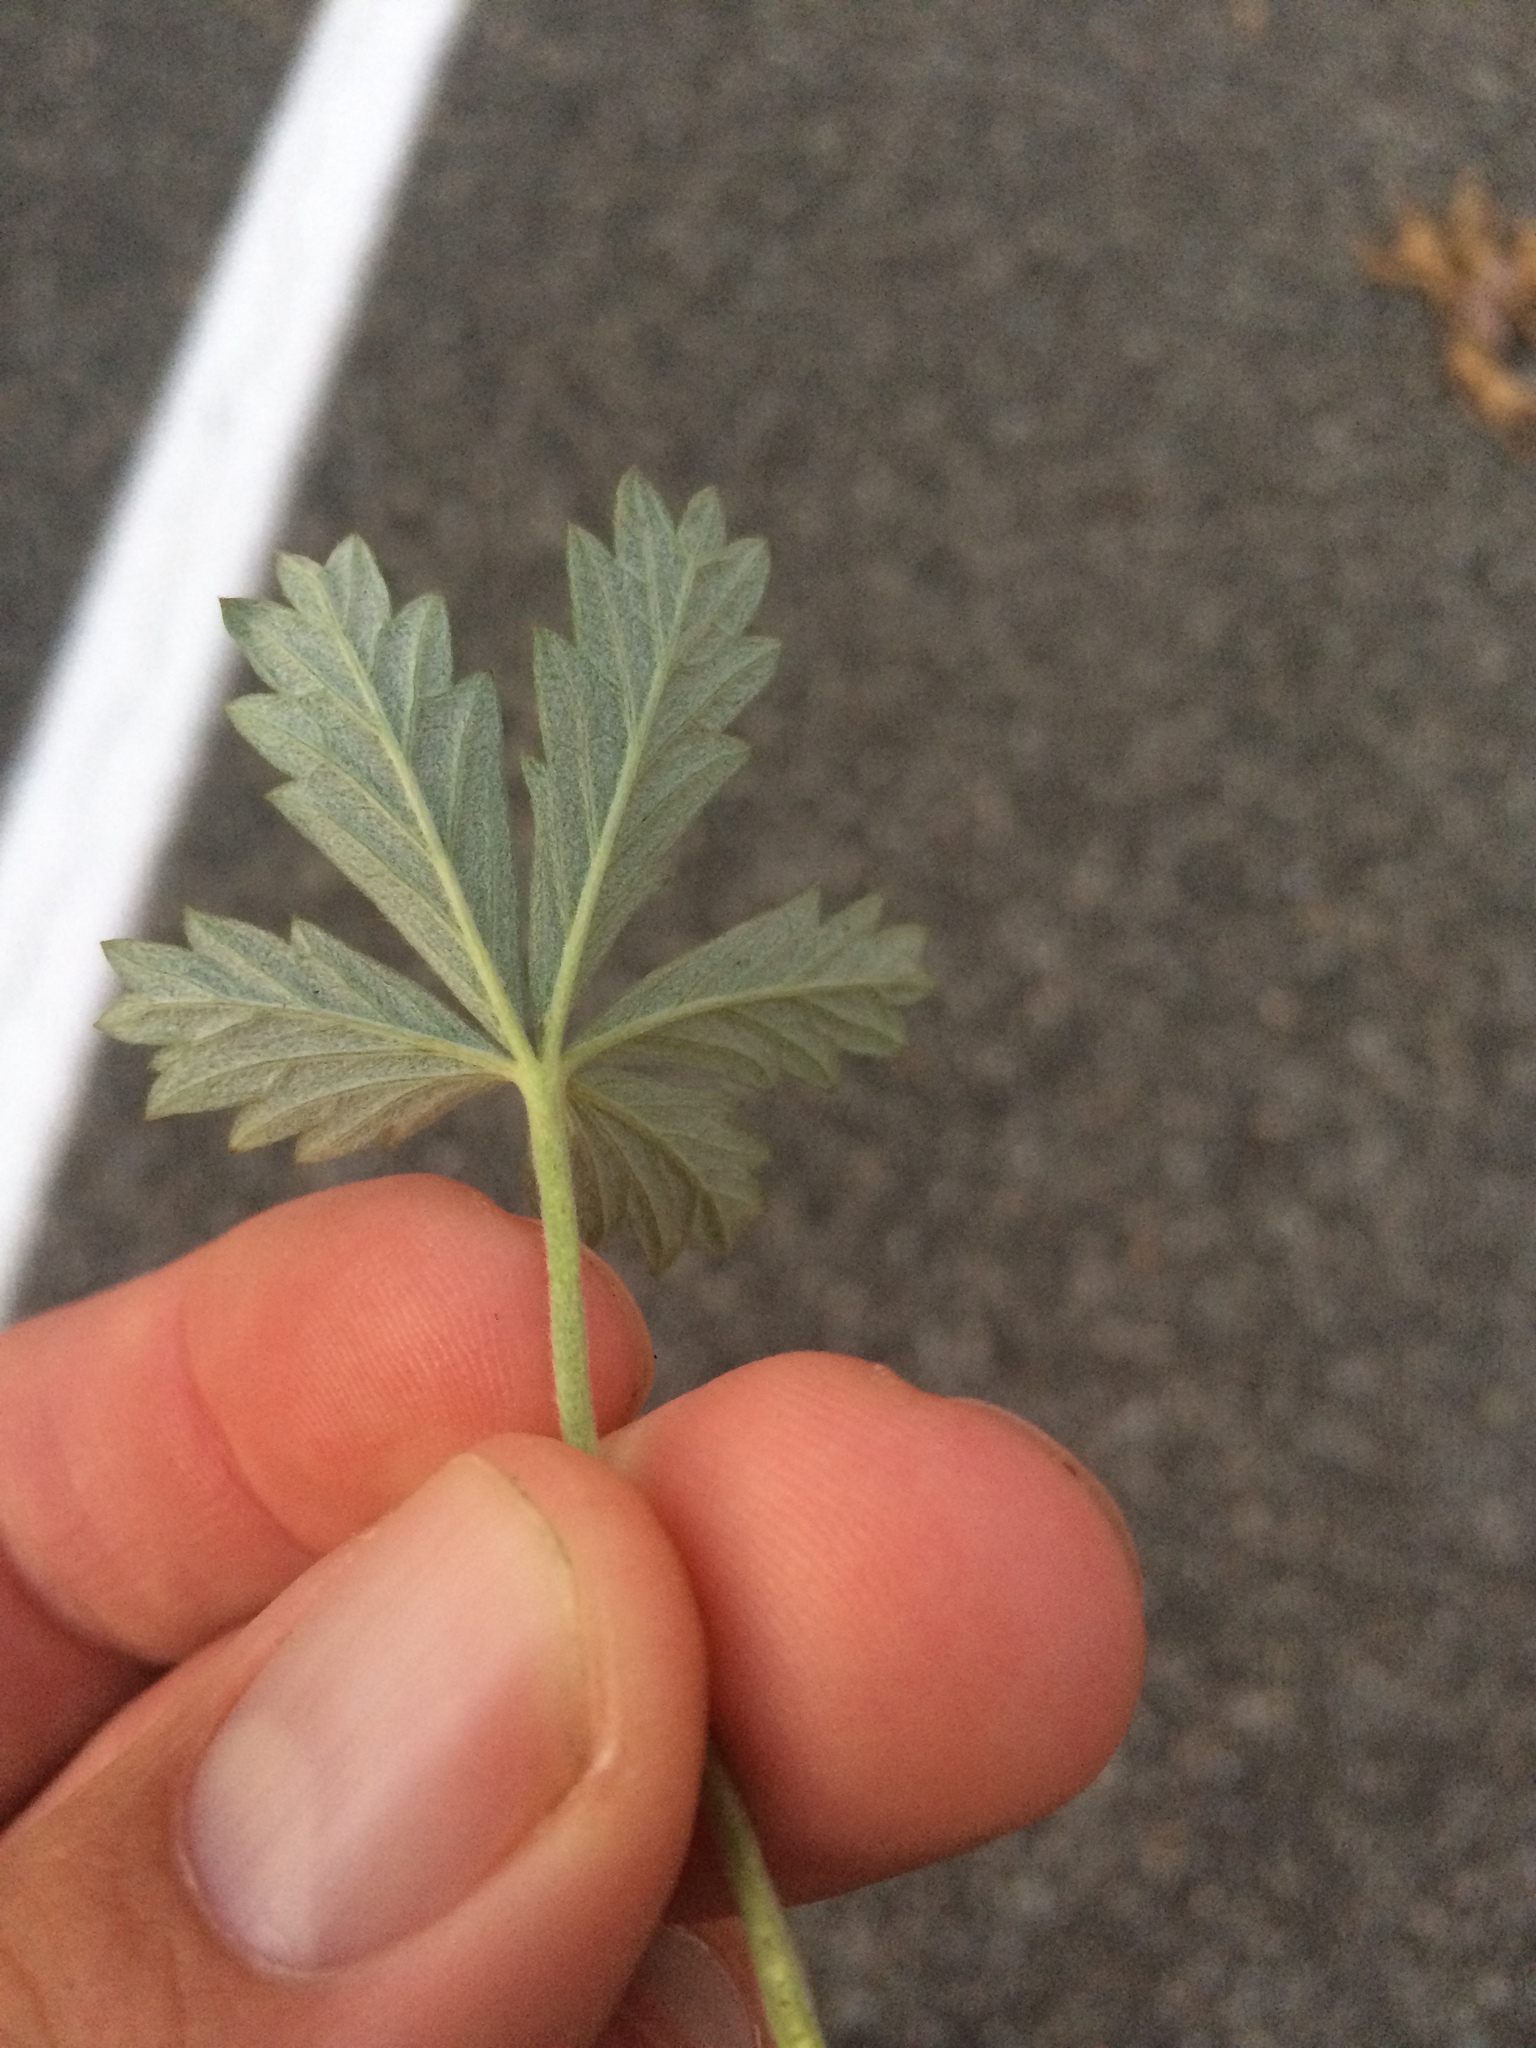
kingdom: Plantae
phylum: Tracheophyta
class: Magnoliopsida
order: Rosales
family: Rosaceae
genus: Potentilla
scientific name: Potentilla argentea
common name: Hoary cinquefoil
